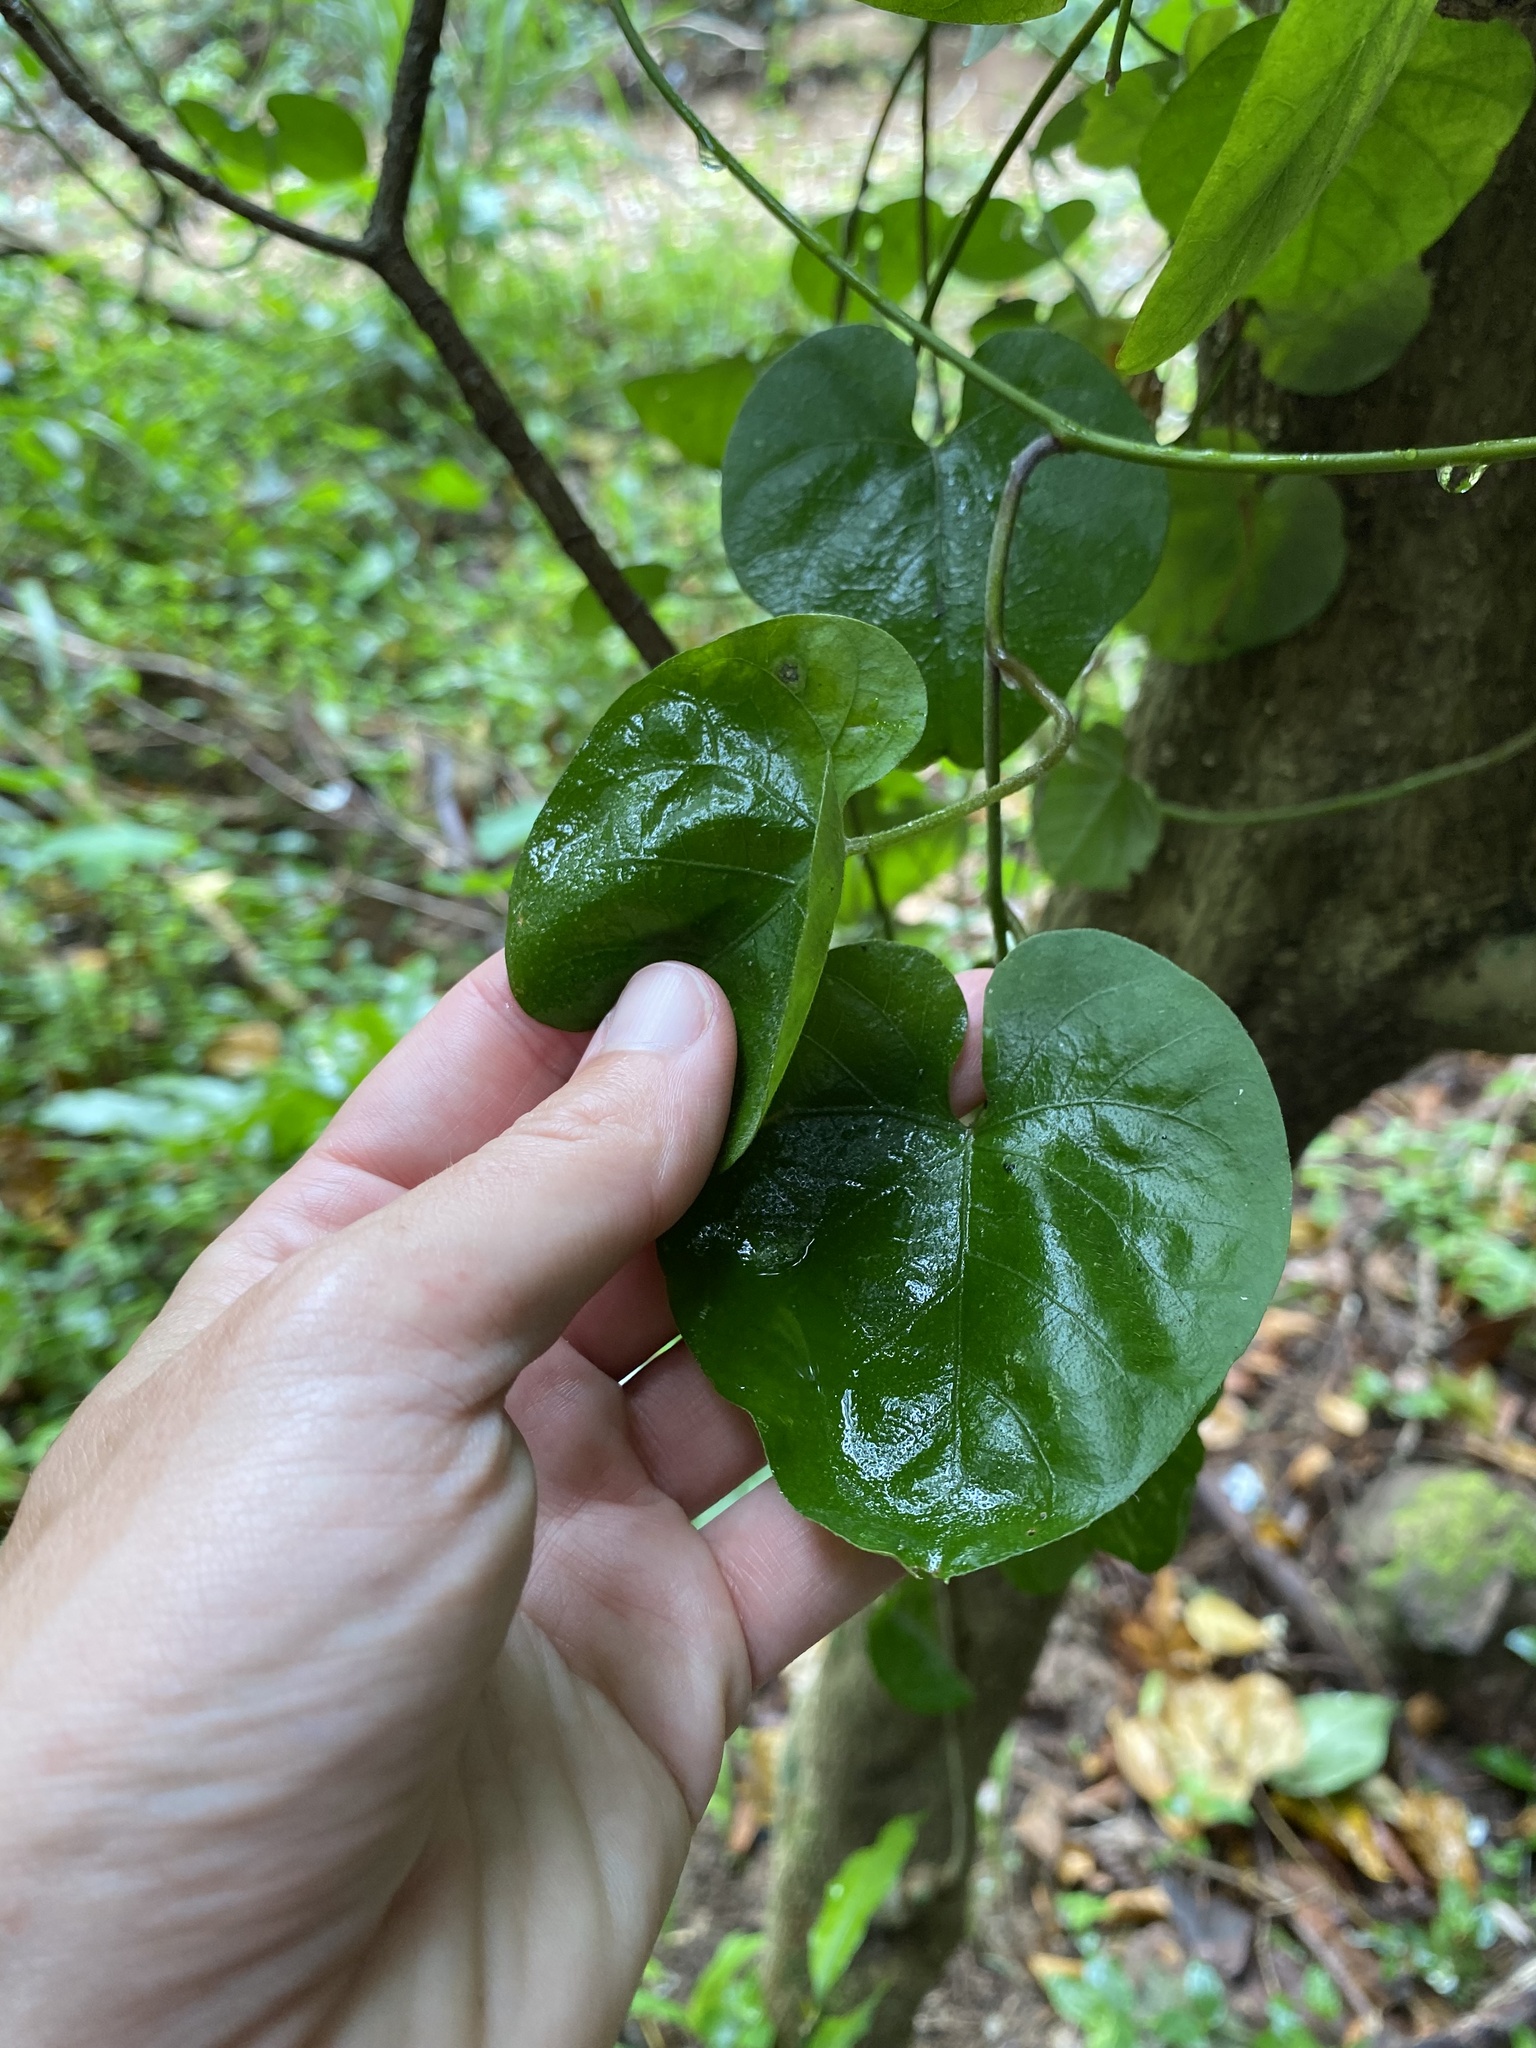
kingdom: Plantae
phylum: Tracheophyta
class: Magnoliopsida
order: Piperales
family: Aristolochiaceae
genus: Aristolochia
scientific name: Aristolochia littoralis
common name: Duck
